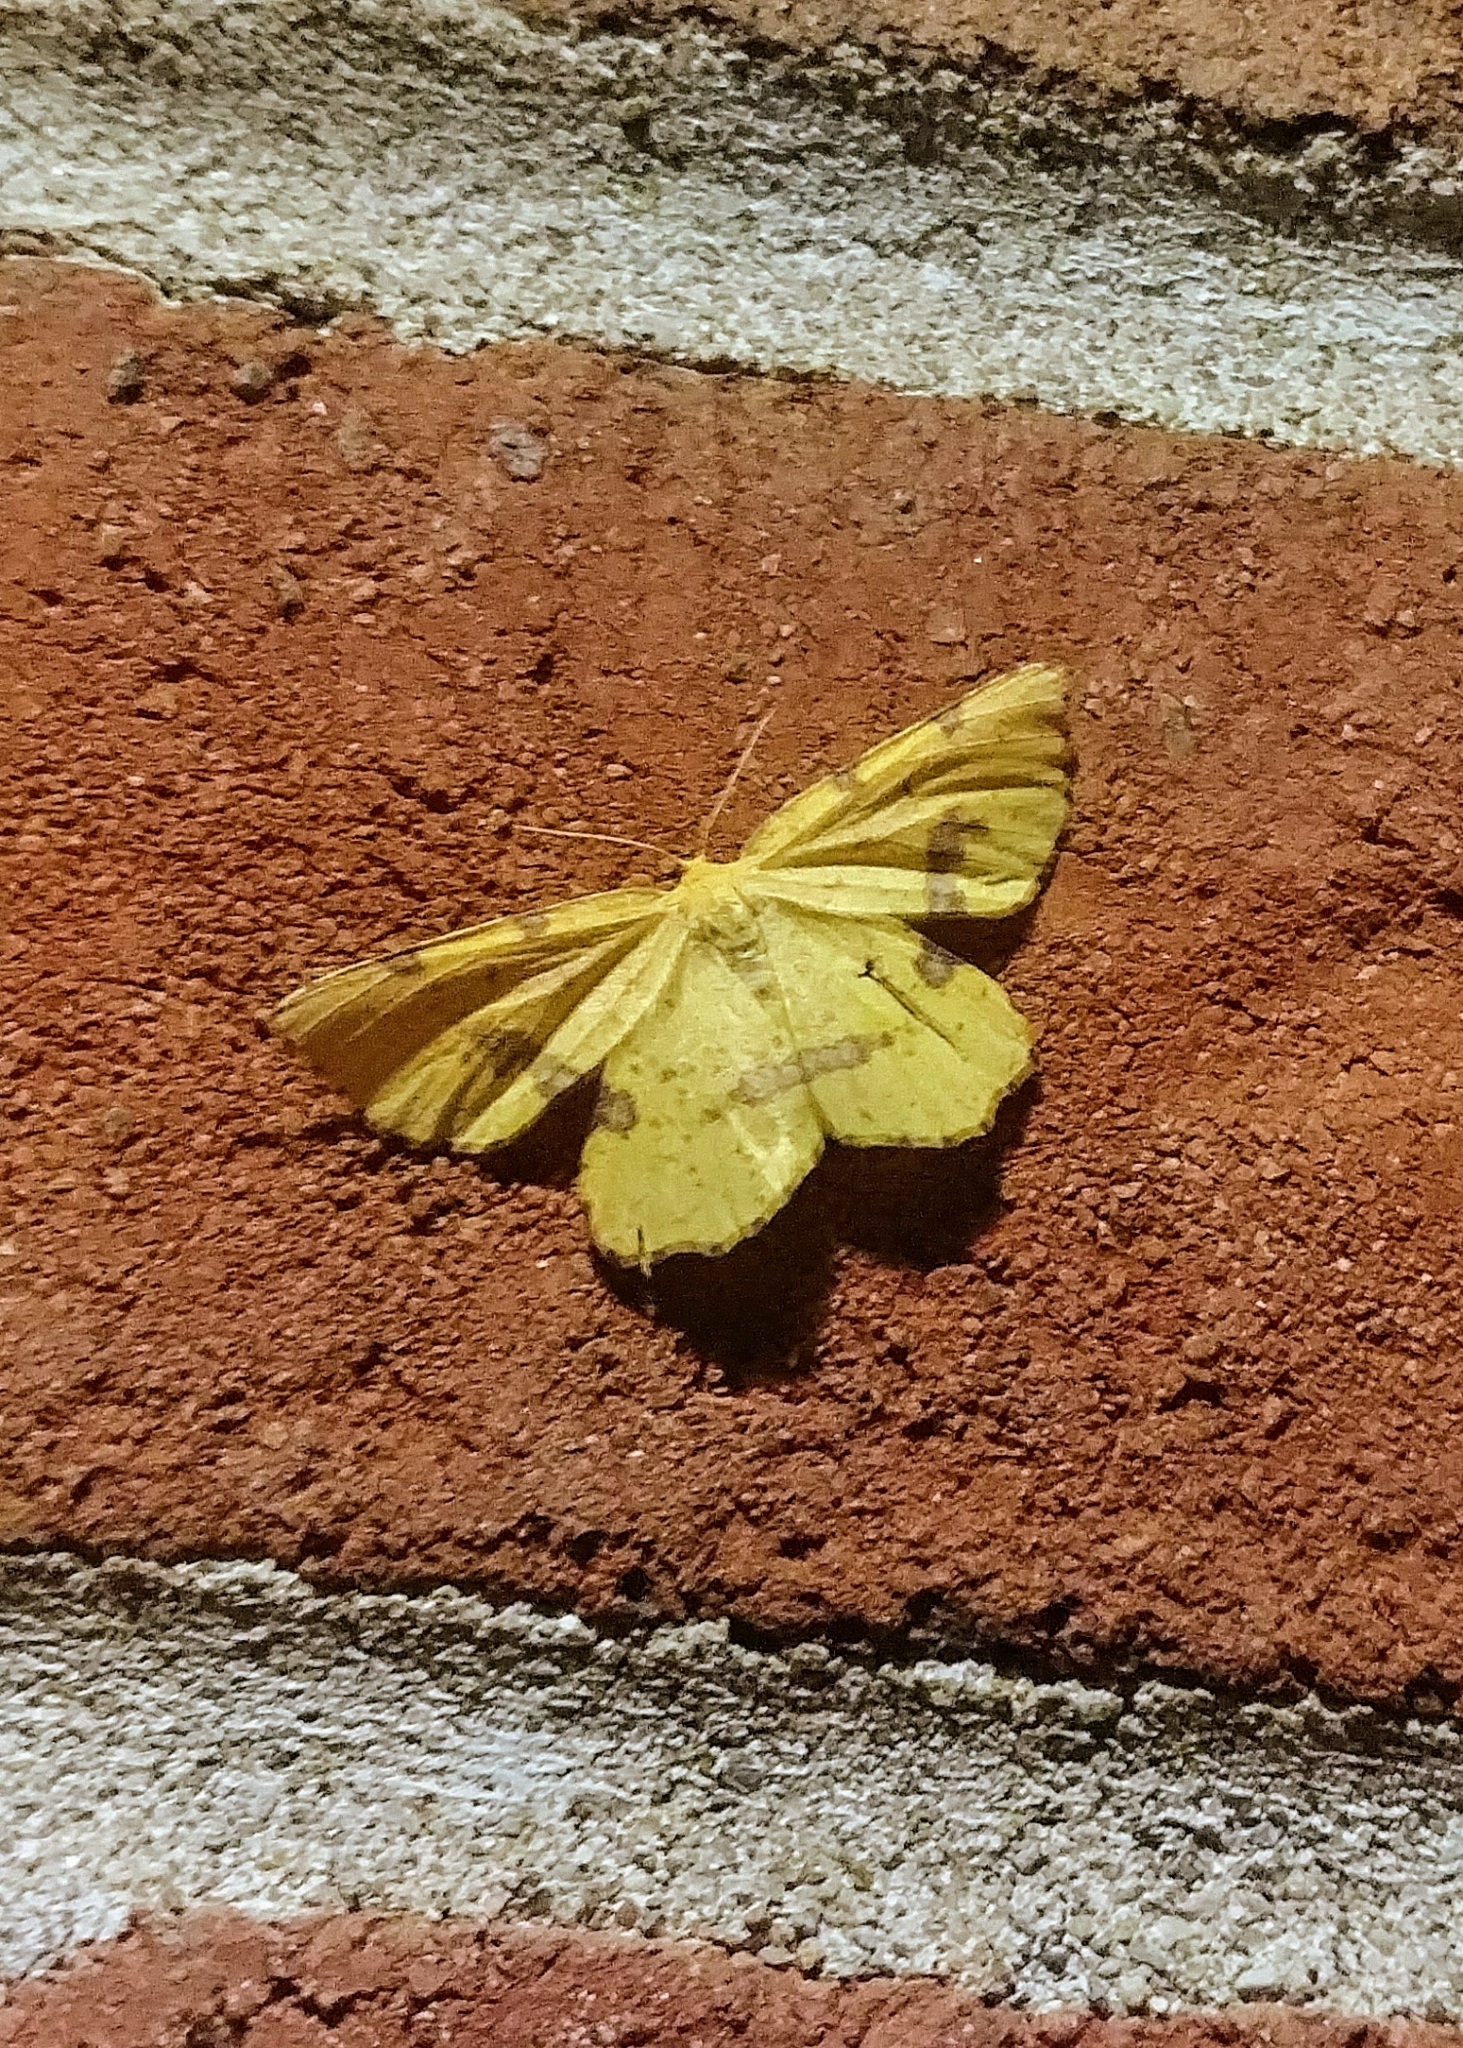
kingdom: Animalia
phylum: Arthropoda
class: Insecta
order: Lepidoptera
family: Geometridae
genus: Xanthotype
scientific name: Xanthotype
